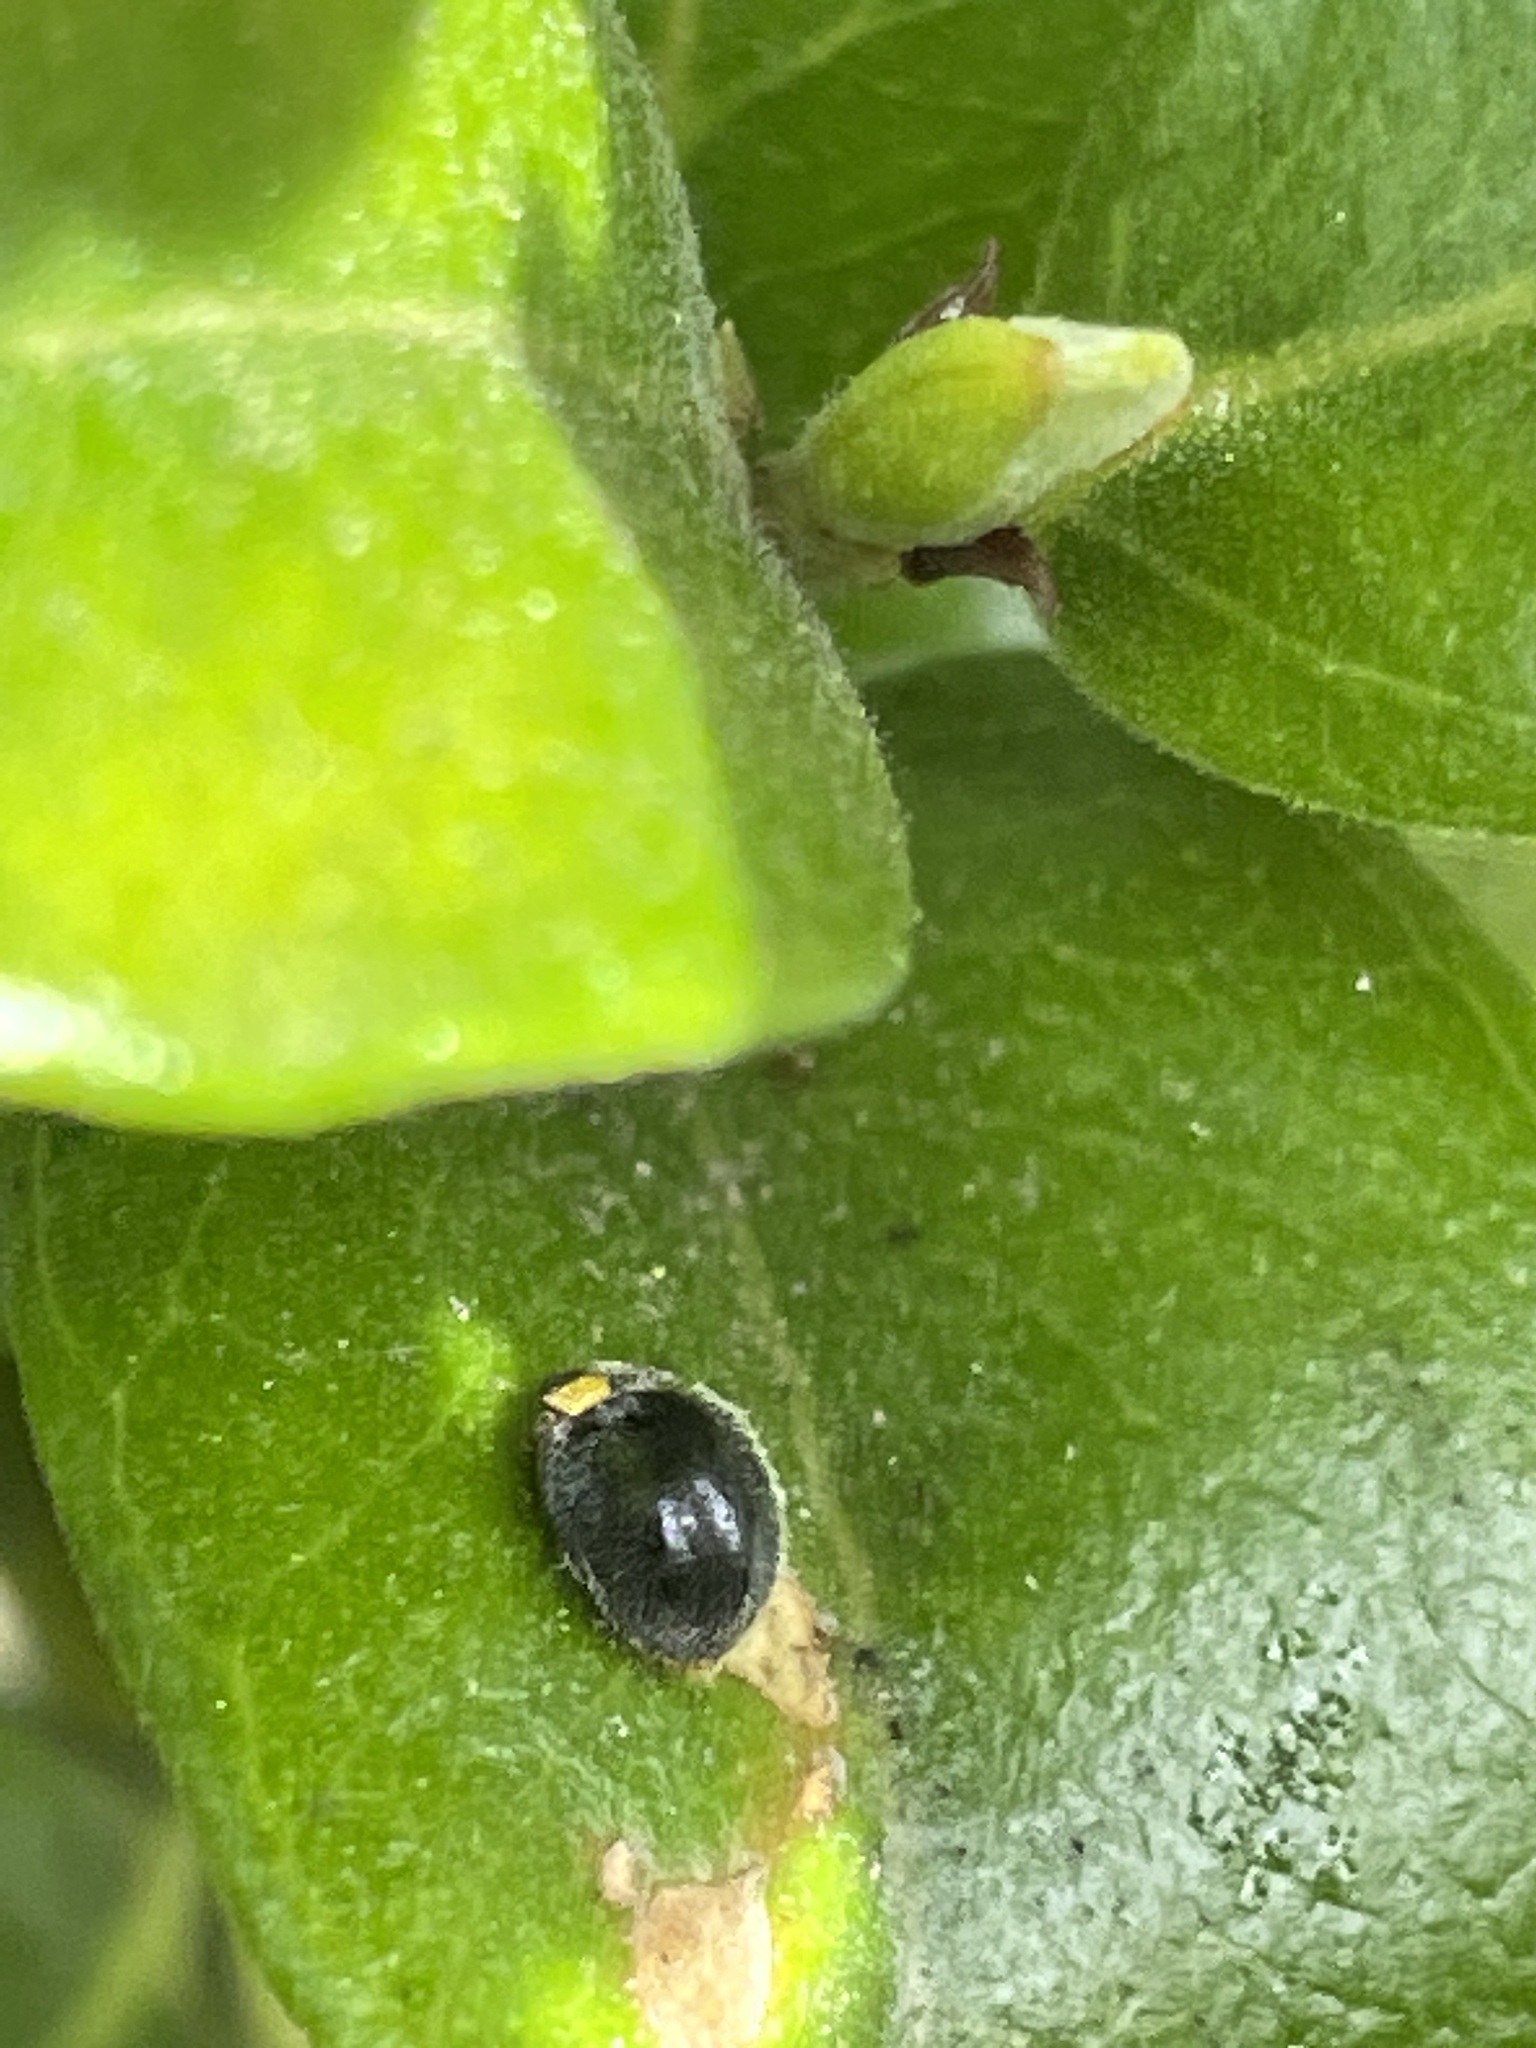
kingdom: Animalia
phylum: Arthropoda
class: Insecta
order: Coleoptera
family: Coccinellidae
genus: Scymnodes
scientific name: Scymnodes lividigaster
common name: Yellowshouldered lady beetle
